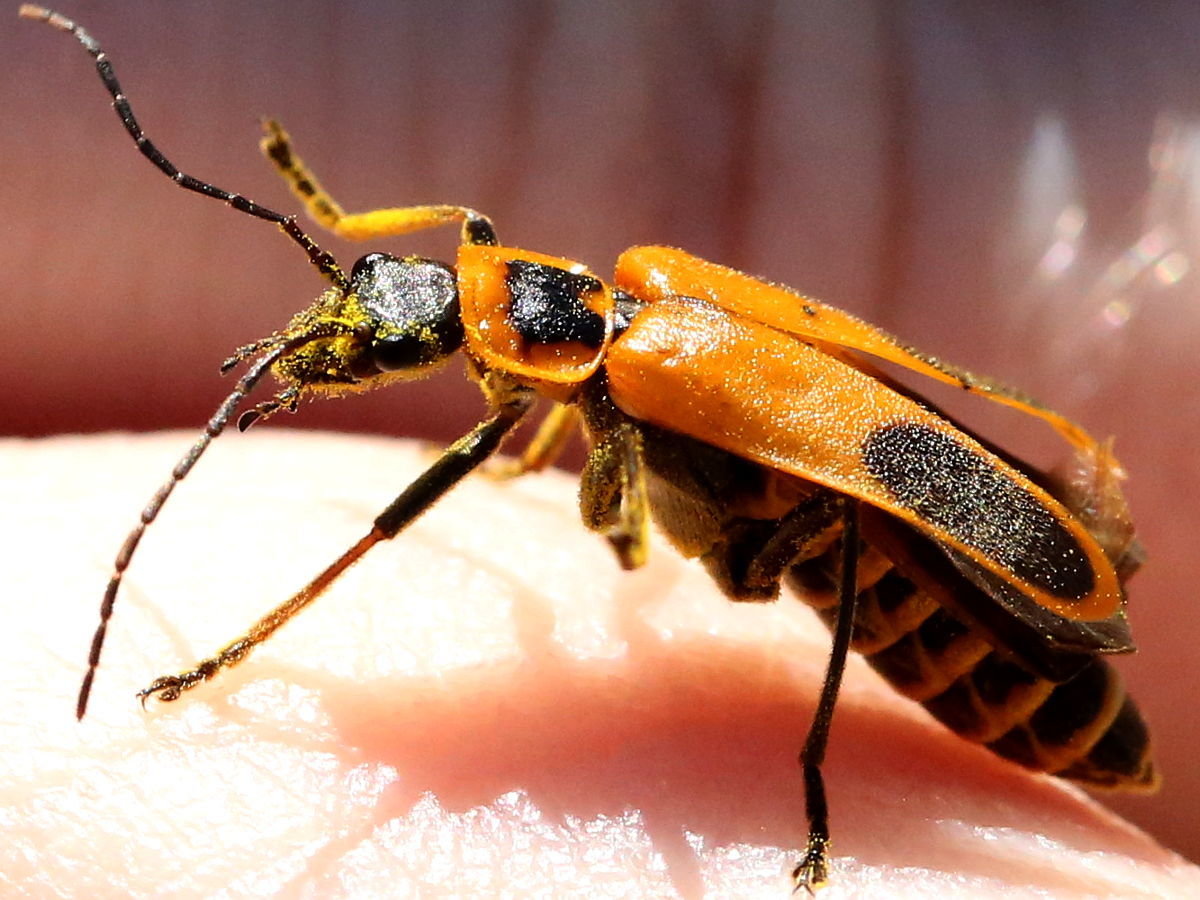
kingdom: Animalia
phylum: Arthropoda
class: Insecta
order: Coleoptera
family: Cantharidae
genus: Chauliognathus
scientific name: Chauliognathus pensylvanicus
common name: Goldenrod soldier beetle
